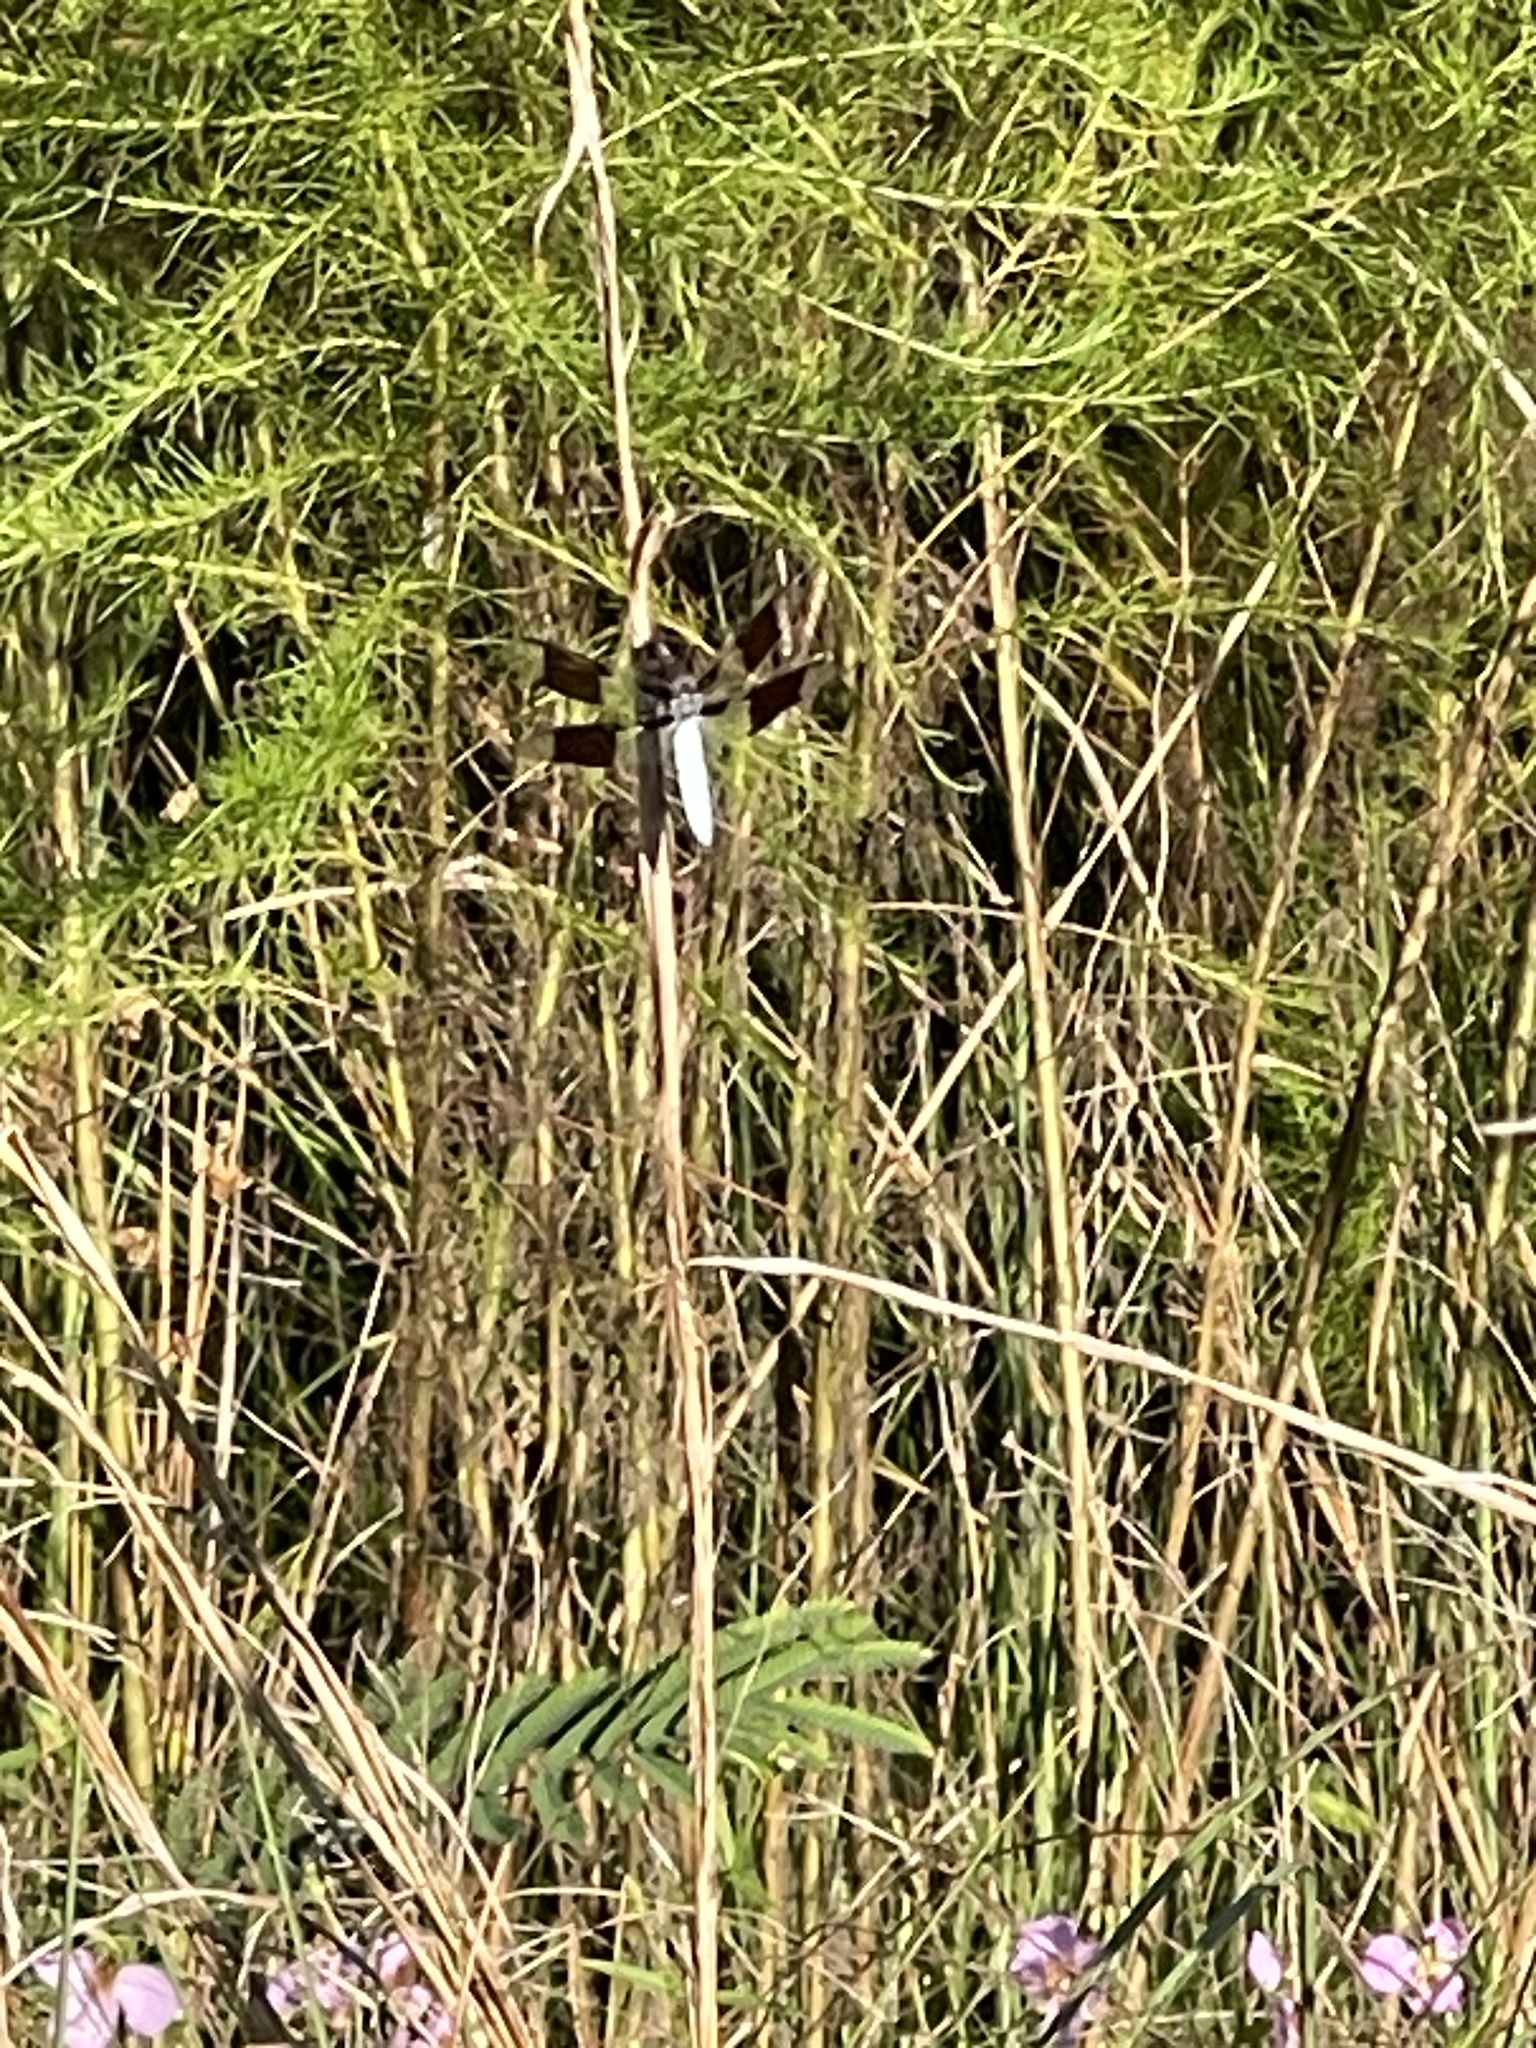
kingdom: Animalia
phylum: Arthropoda
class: Insecta
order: Odonata
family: Libellulidae
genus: Plathemis
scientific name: Plathemis lydia
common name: Common whitetail
